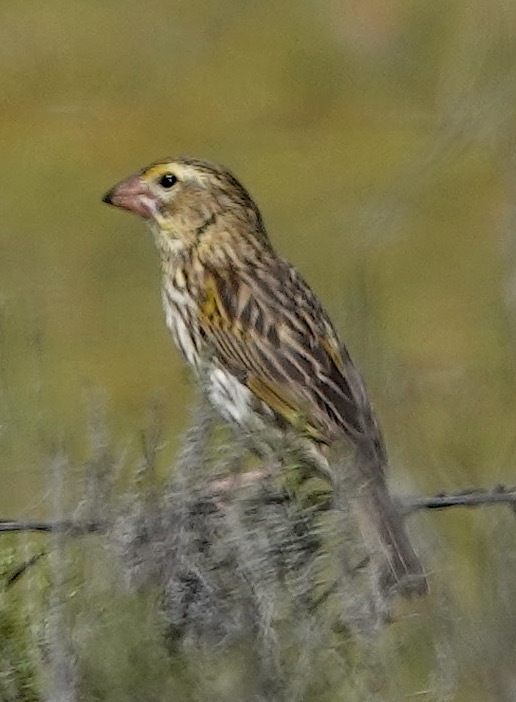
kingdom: Animalia
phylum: Chordata
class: Aves
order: Passeriformes
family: Ploceidae
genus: Euplectes
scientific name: Euplectes capensis
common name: Yellow bishop
